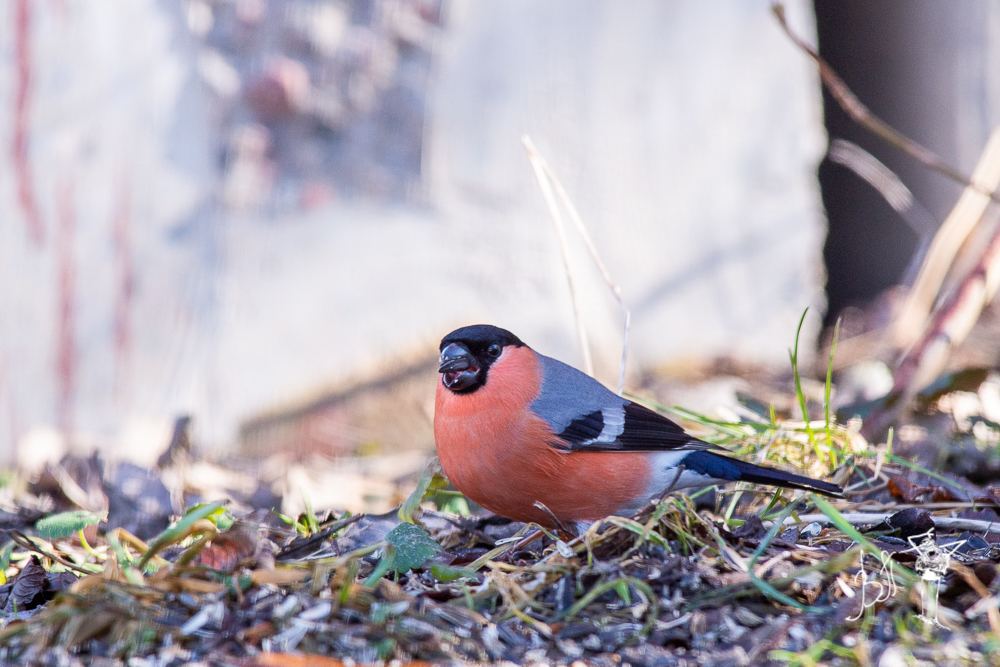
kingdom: Animalia
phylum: Chordata
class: Aves
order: Passeriformes
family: Fringillidae
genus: Pyrrhula
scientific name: Pyrrhula pyrrhula
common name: Eurasian bullfinch
